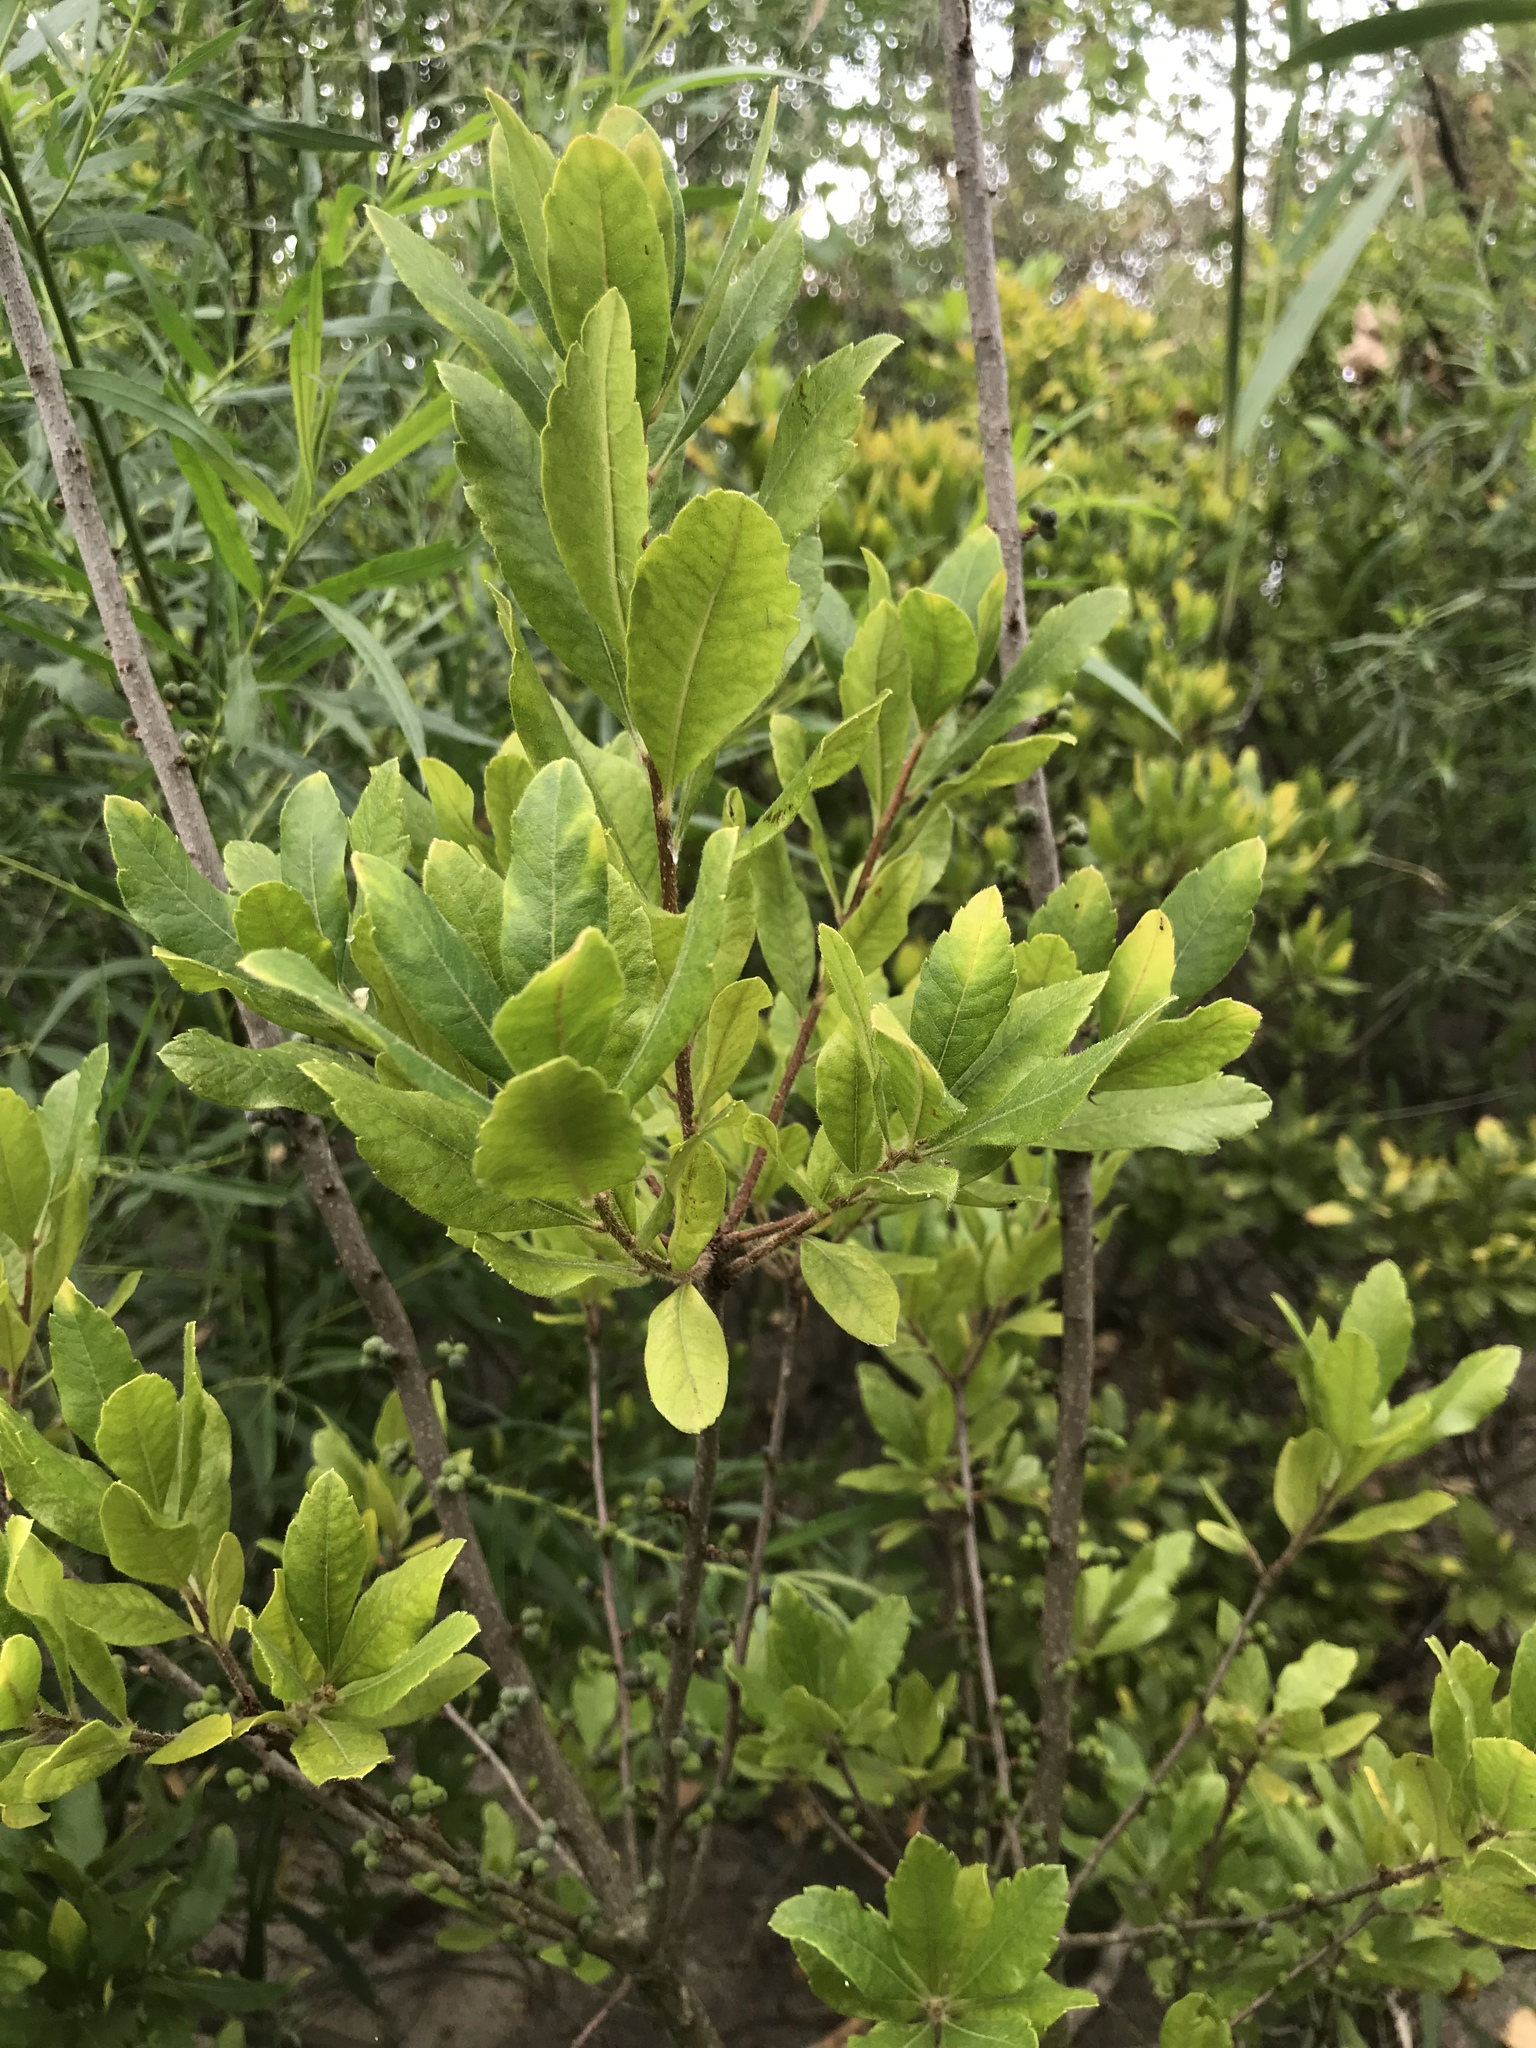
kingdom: Plantae
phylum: Tracheophyta
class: Magnoliopsida
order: Fagales
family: Myricaceae
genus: Morella
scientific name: Morella pensylvanica
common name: Northern bayberry
